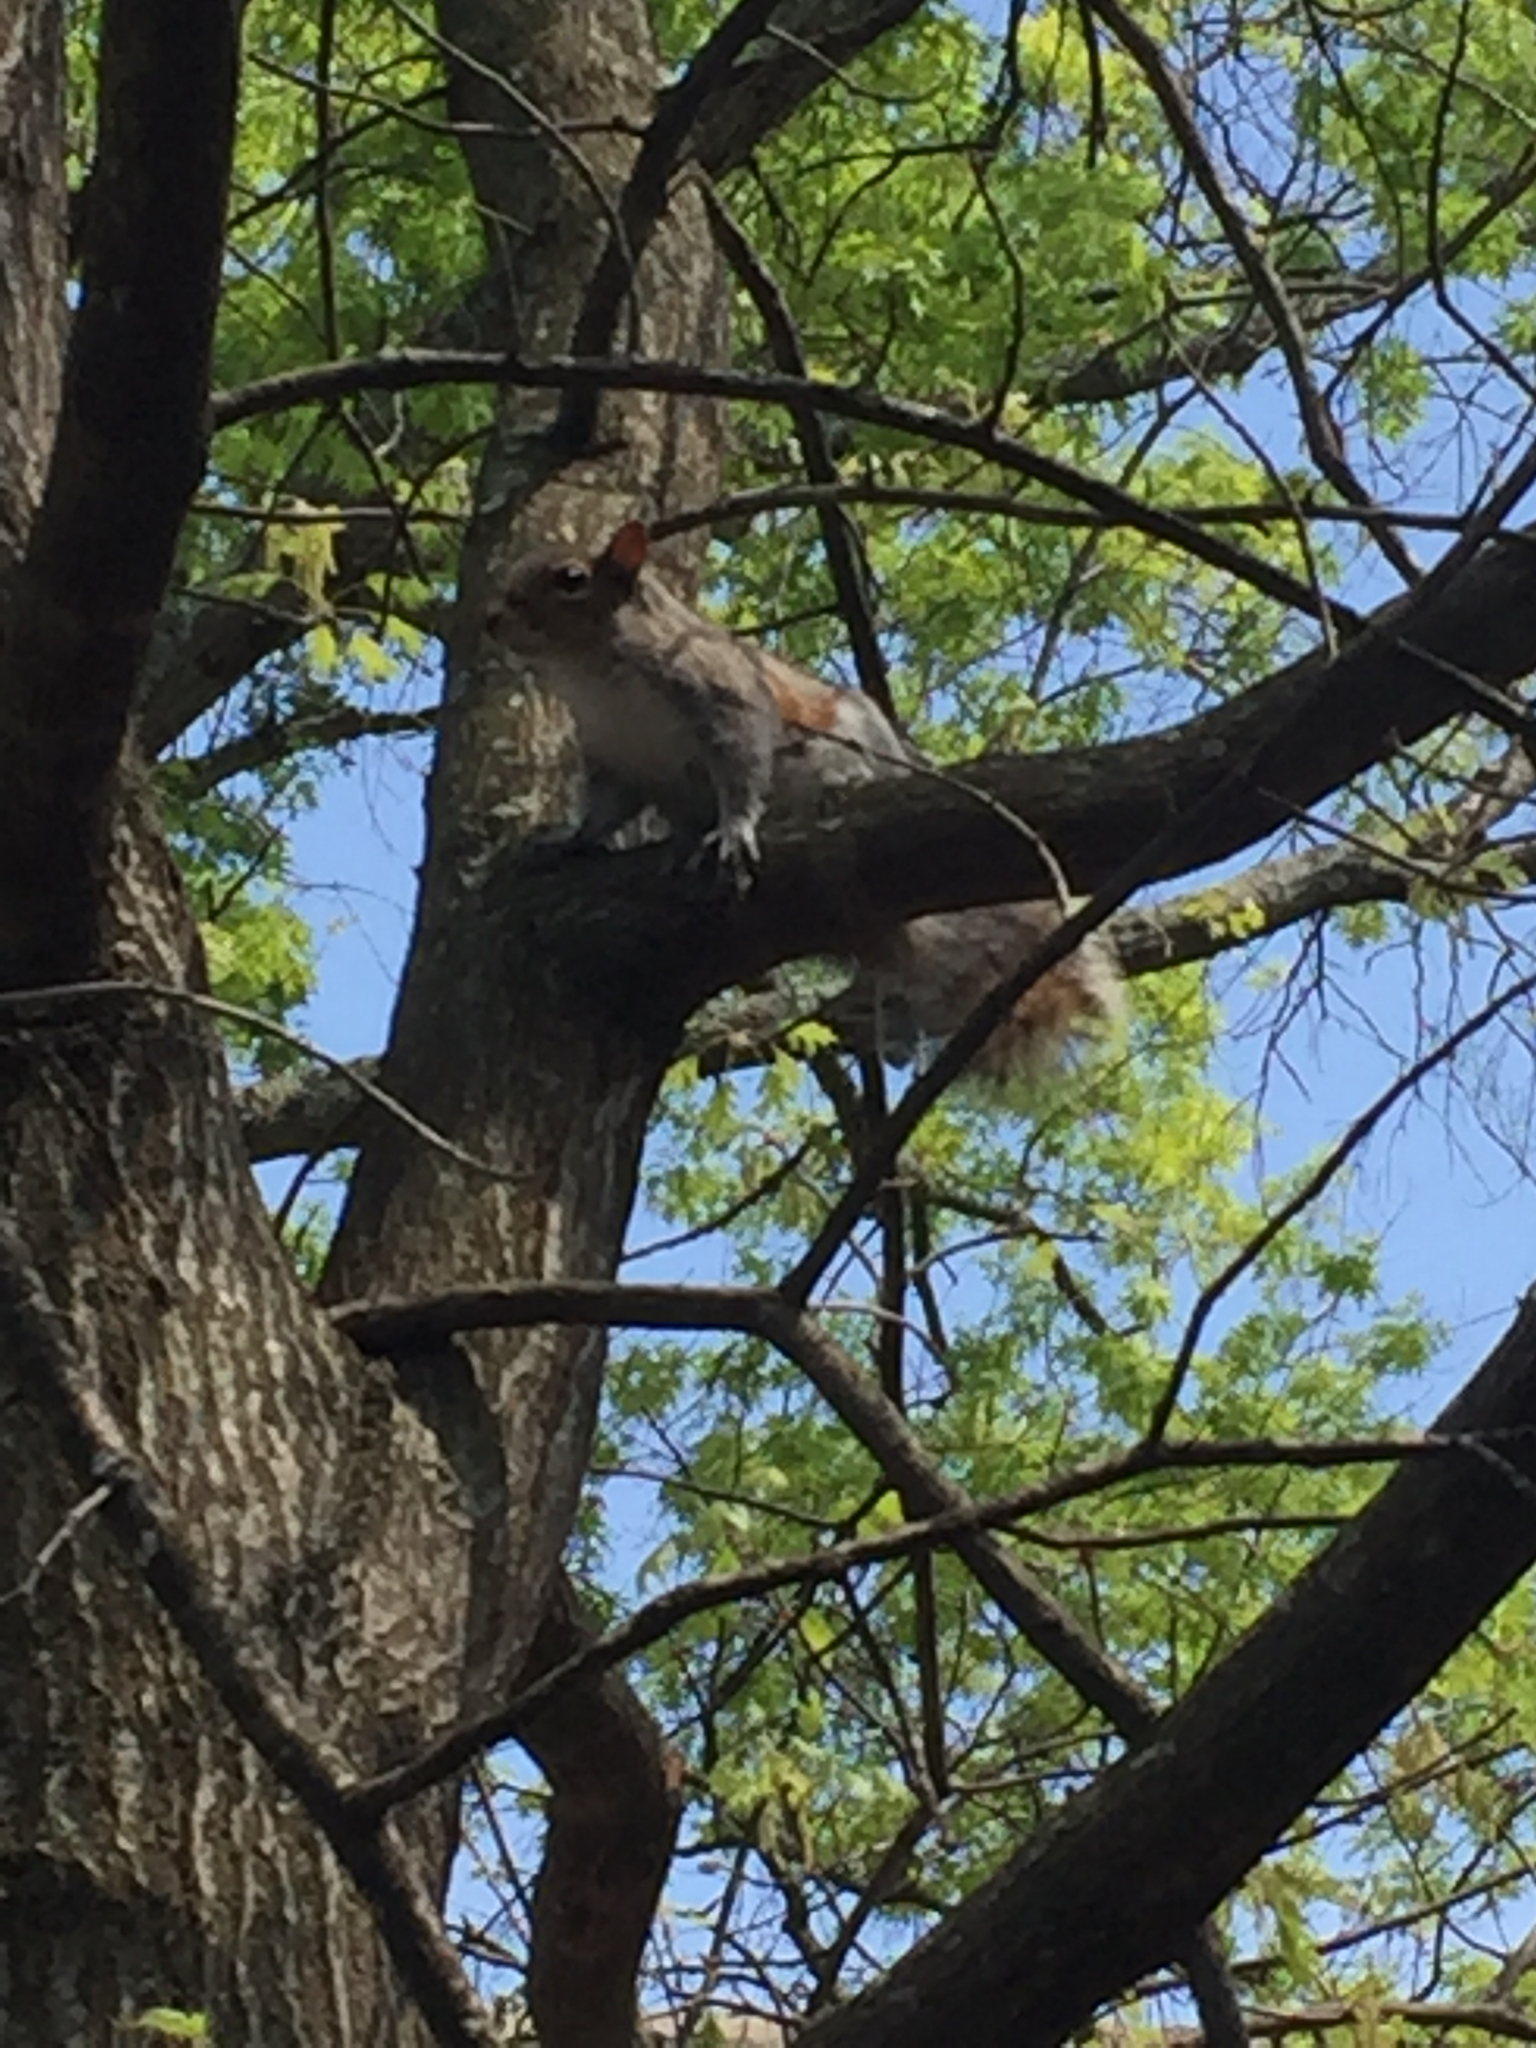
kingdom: Animalia
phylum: Chordata
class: Mammalia
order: Rodentia
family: Sciuridae
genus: Sciurus
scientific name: Sciurus carolinensis
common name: Eastern gray squirrel
